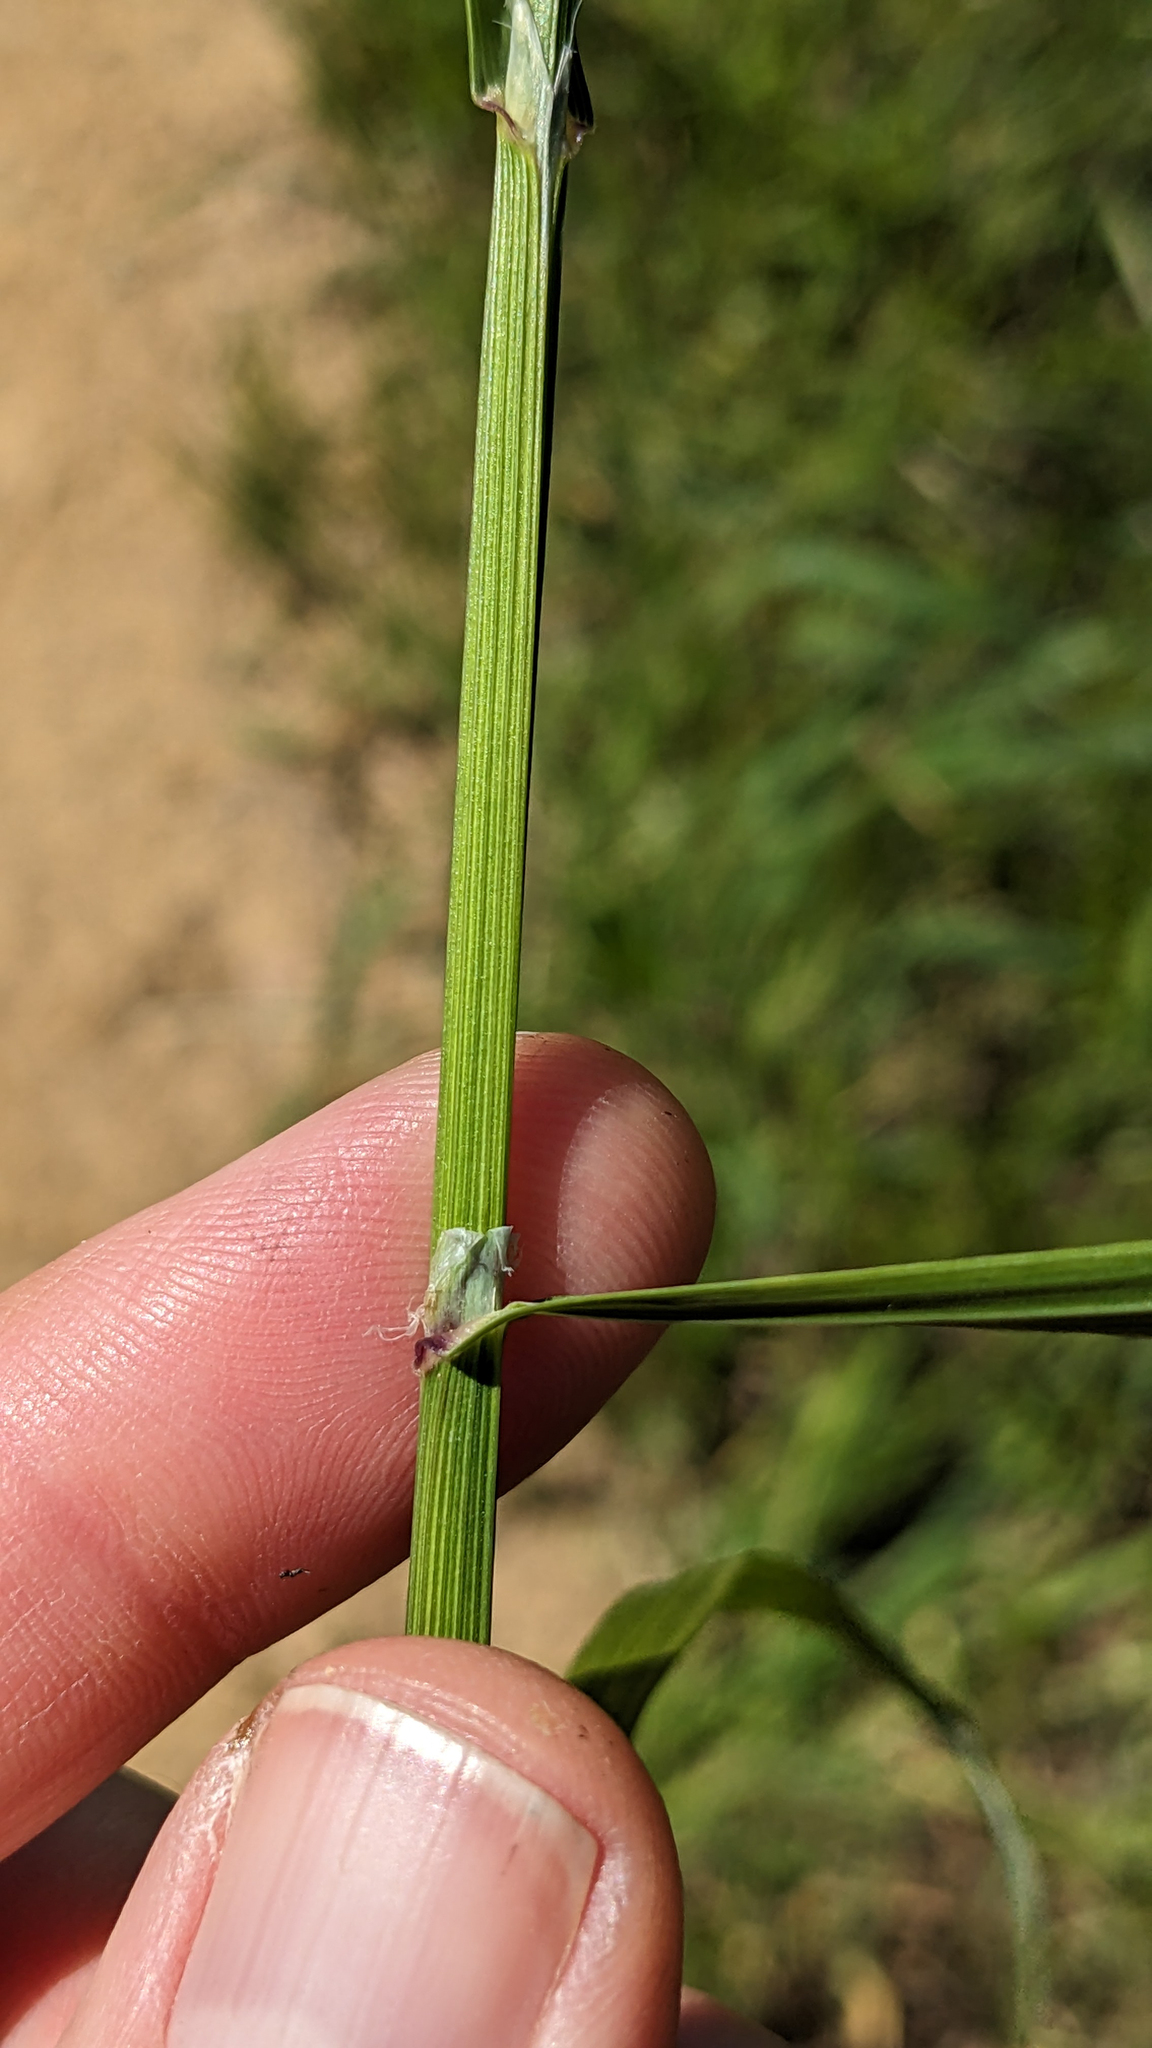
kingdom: Plantae
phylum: Tracheophyta
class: Liliopsida
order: Poales
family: Poaceae
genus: Melica
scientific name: Melica imperfecta
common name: California melic
